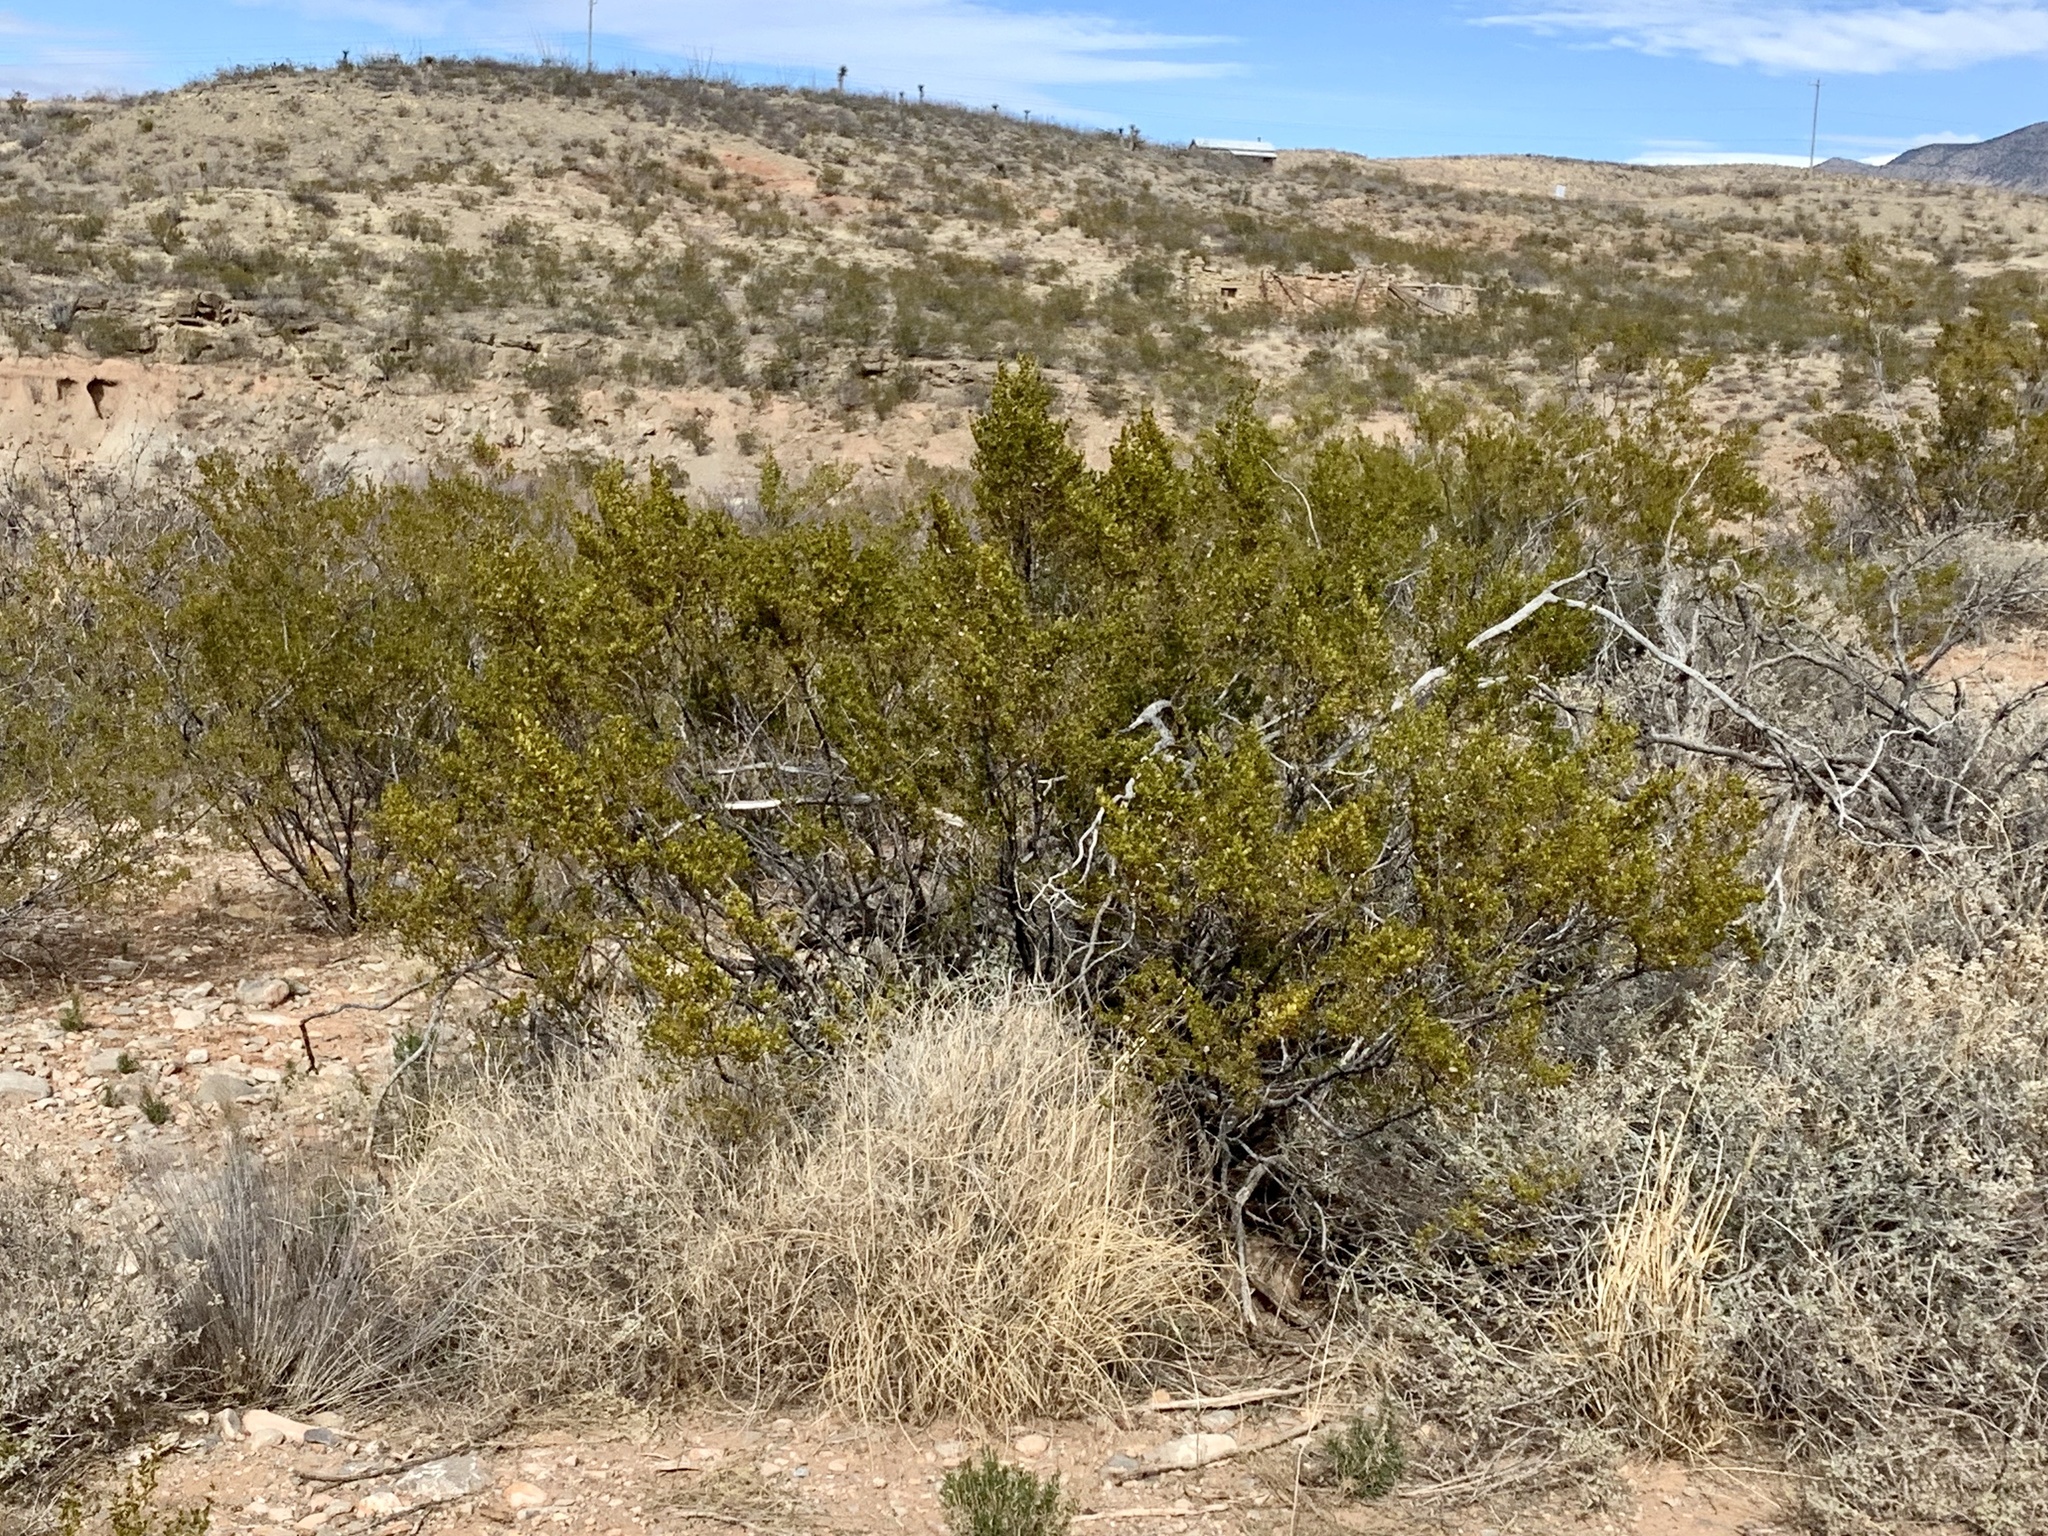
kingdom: Plantae
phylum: Tracheophyta
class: Magnoliopsida
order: Zygophyllales
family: Zygophyllaceae
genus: Larrea
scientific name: Larrea tridentata
